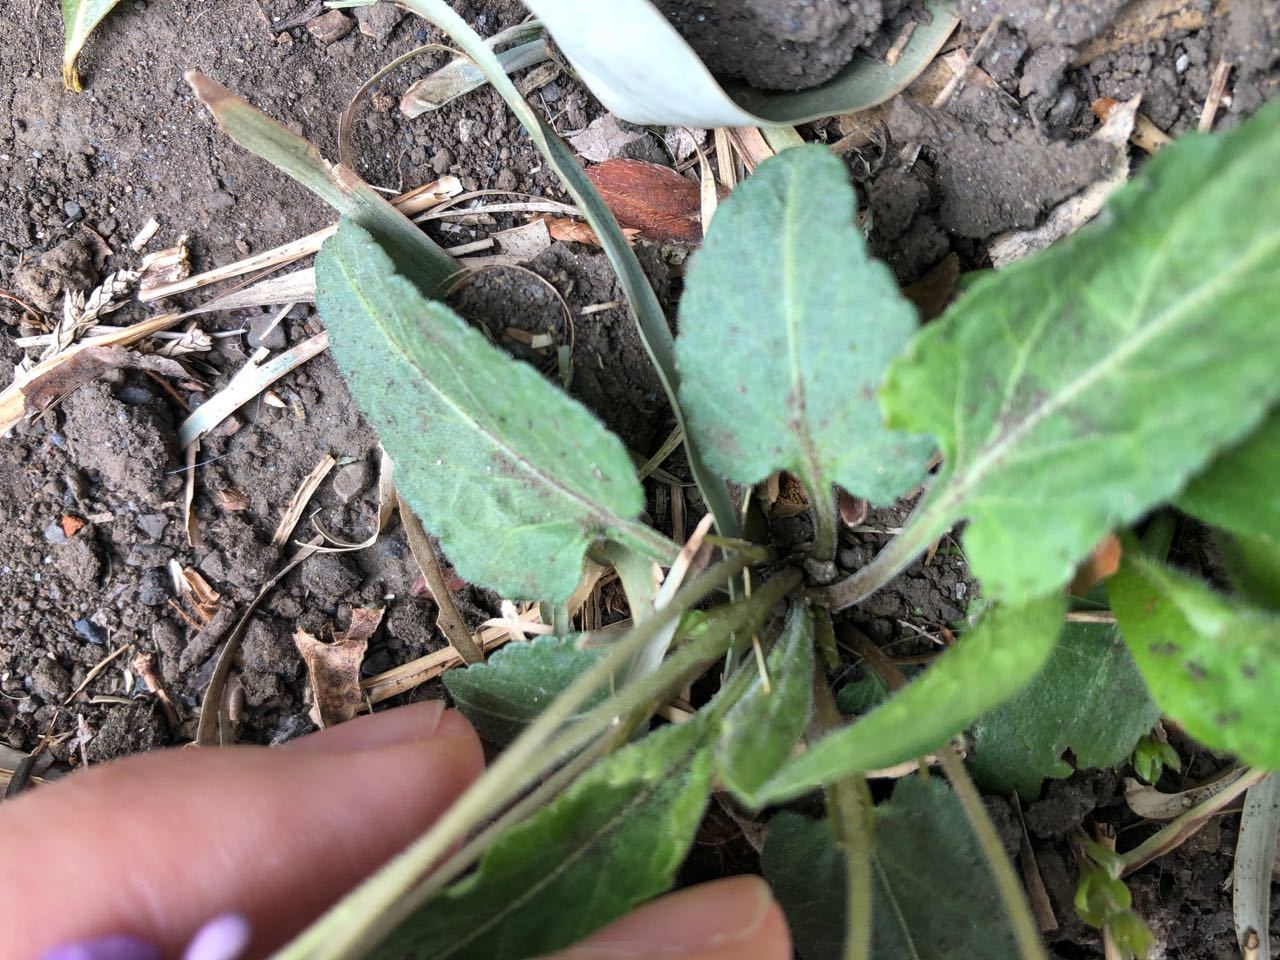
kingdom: Plantae
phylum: Tracheophyta
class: Magnoliopsida
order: Malpighiales
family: Violaceae
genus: Viola
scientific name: Viola philippica
